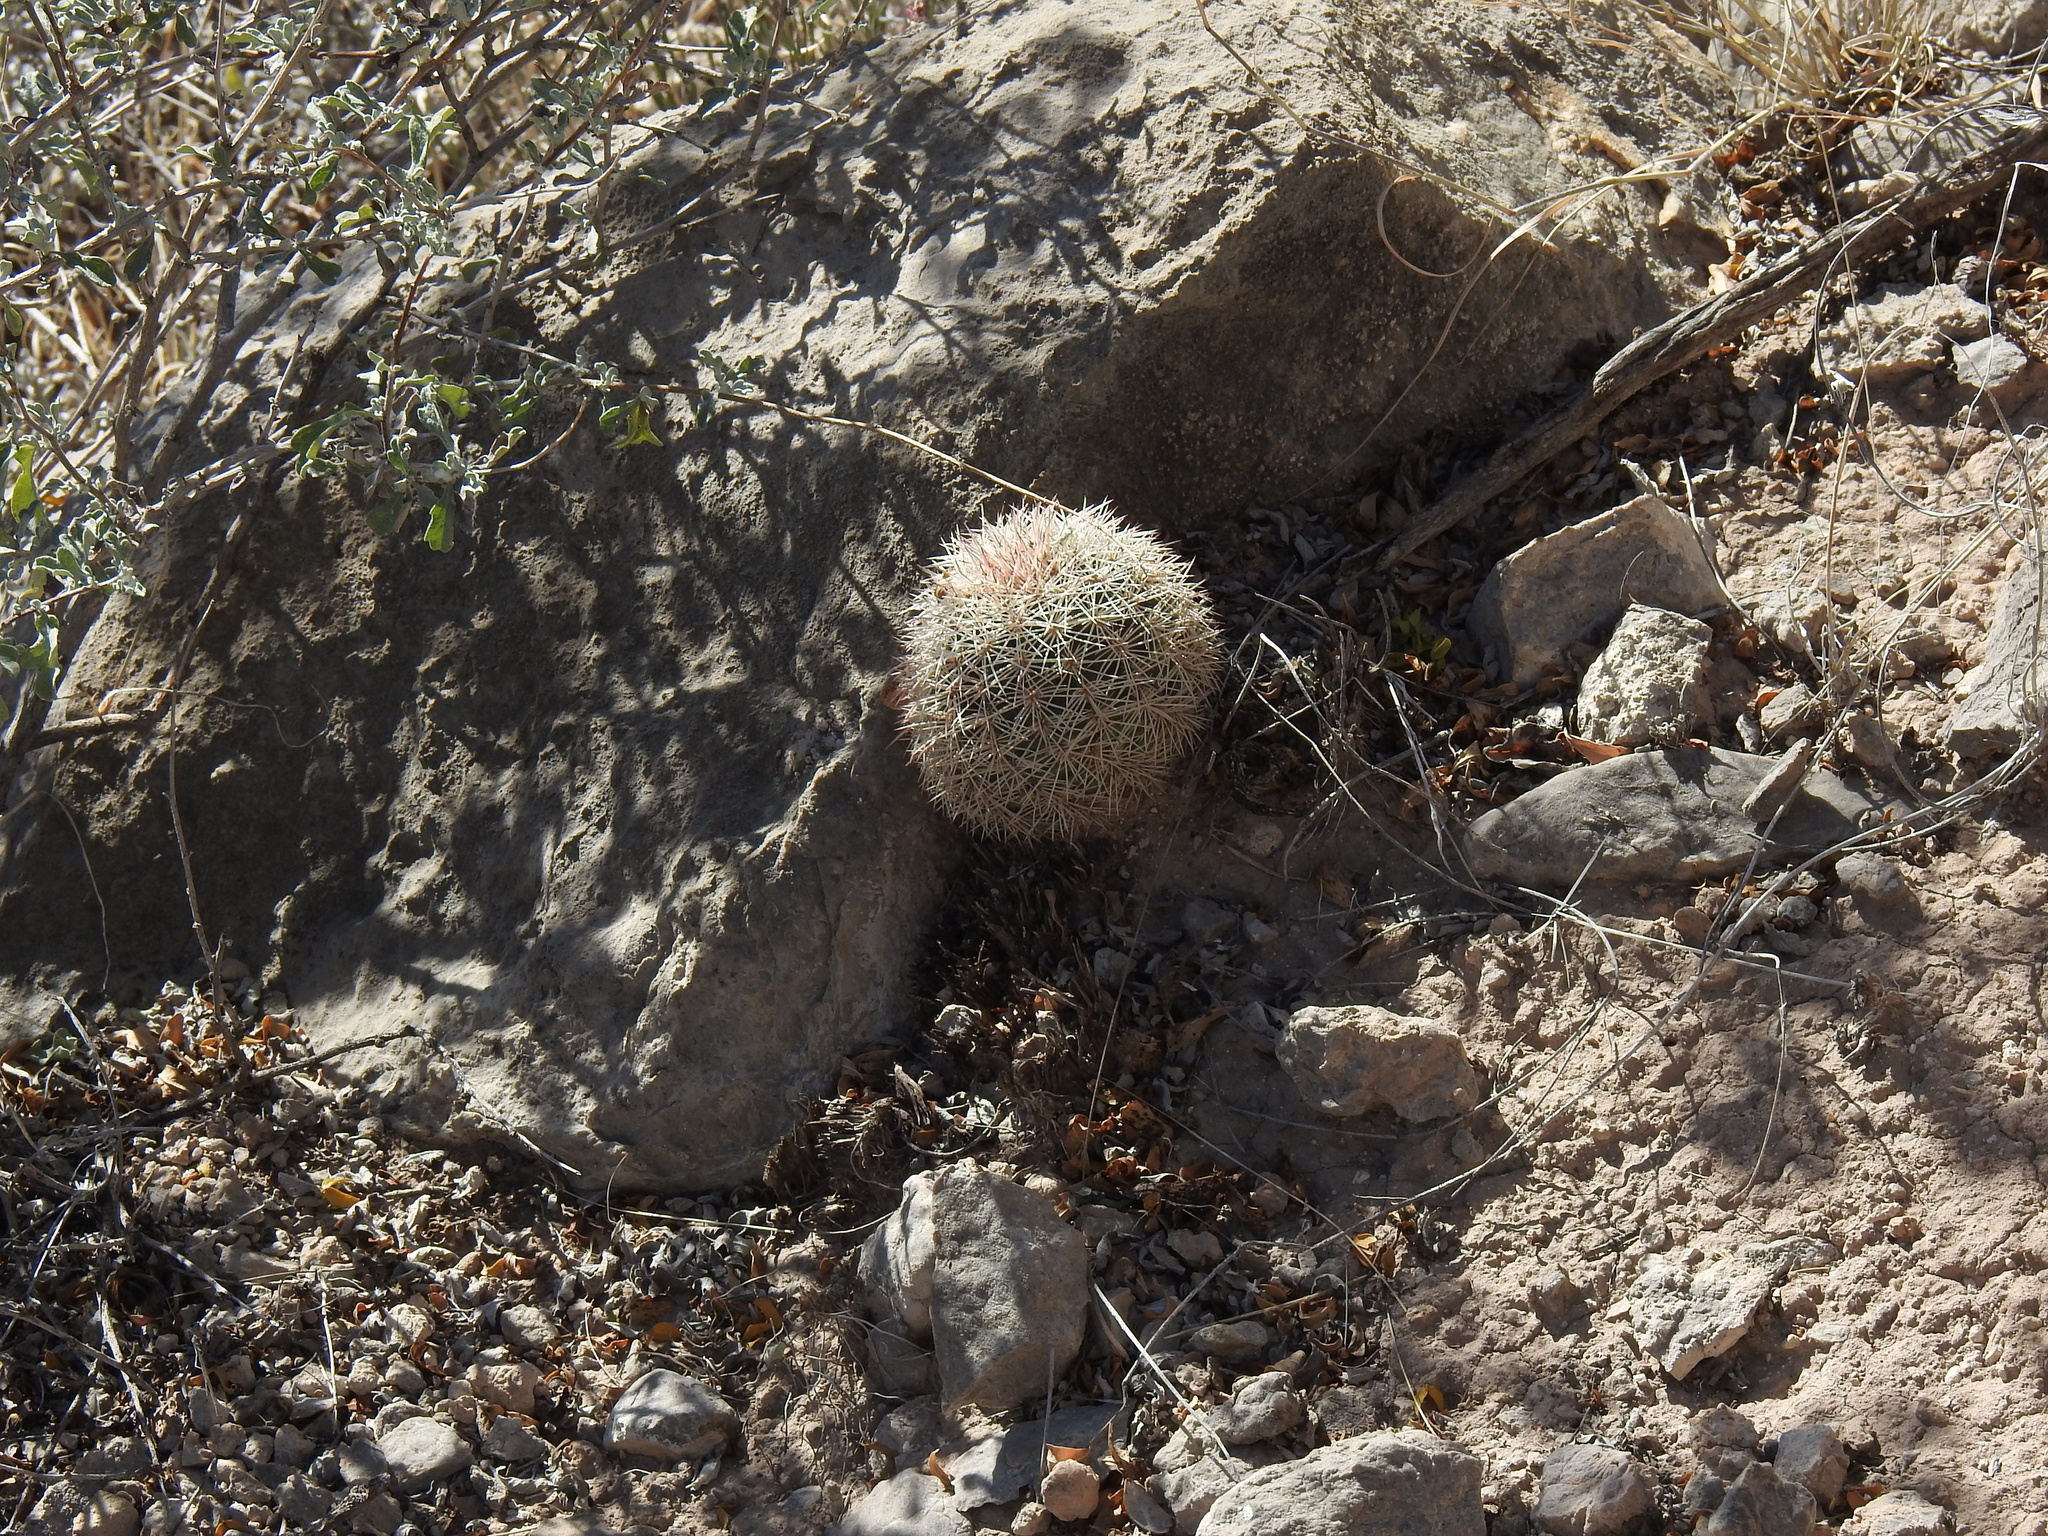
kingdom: Plantae
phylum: Tracheophyta
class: Magnoliopsida
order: Caryophyllales
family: Cactaceae
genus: Echinocereus
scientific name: Echinocereus dasyacanthus
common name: Spiny hedgehog cactus
